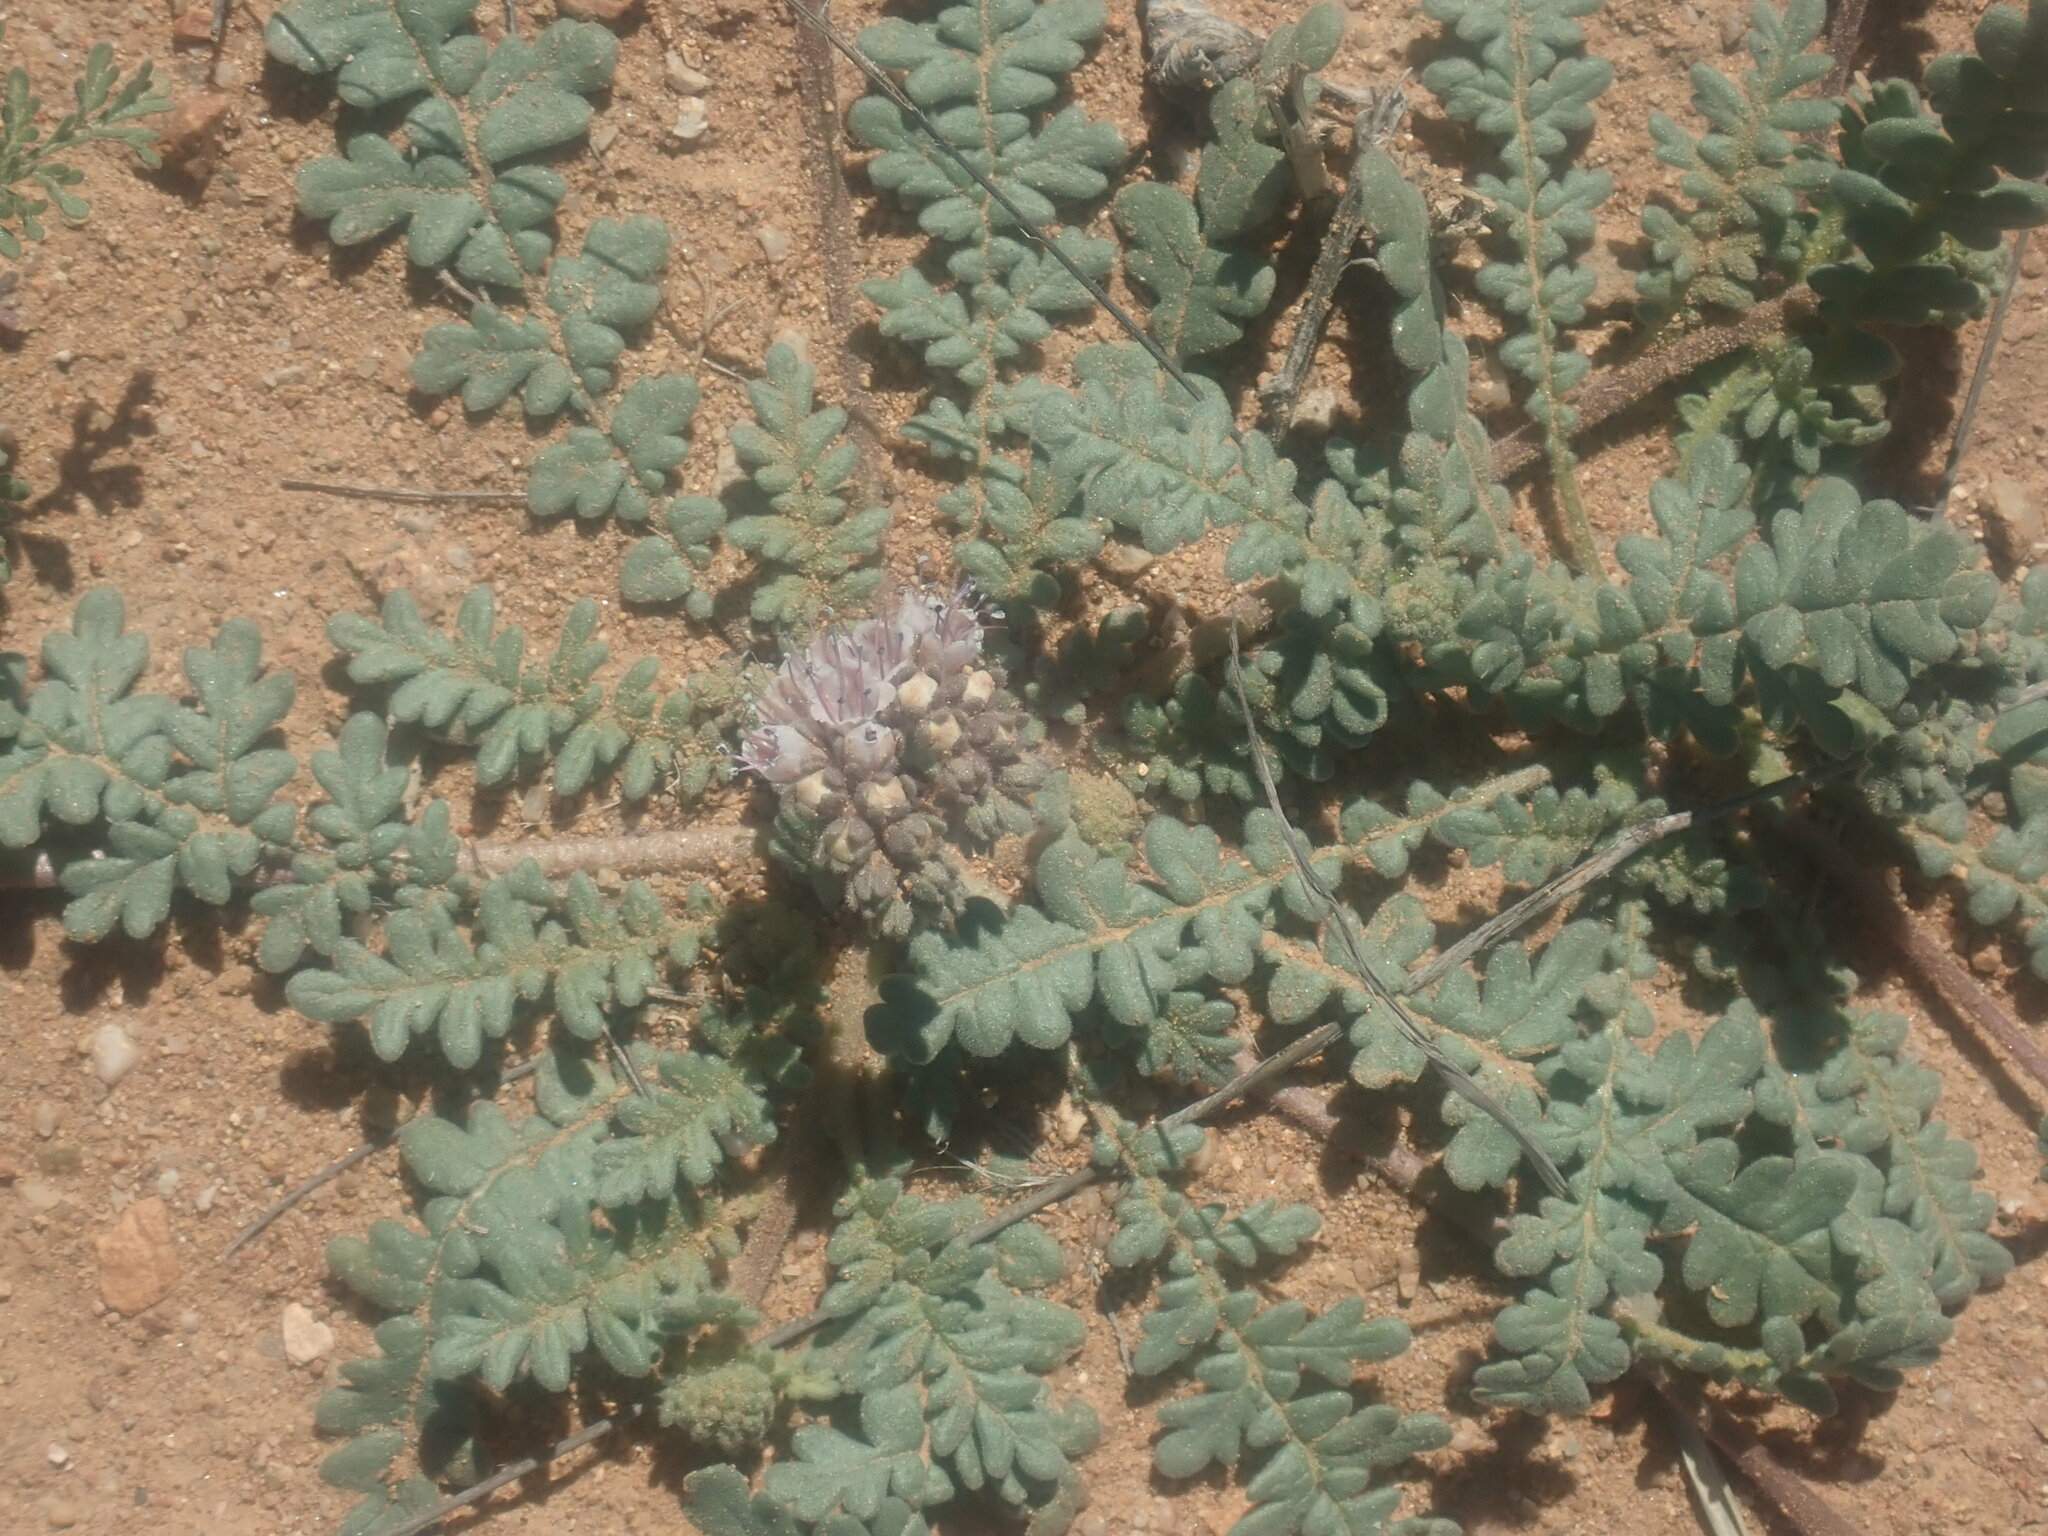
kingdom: Plantae
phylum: Tracheophyta
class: Magnoliopsida
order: Boraginales
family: Hydrophyllaceae
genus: Phacelia
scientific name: Phacelia arizonica
